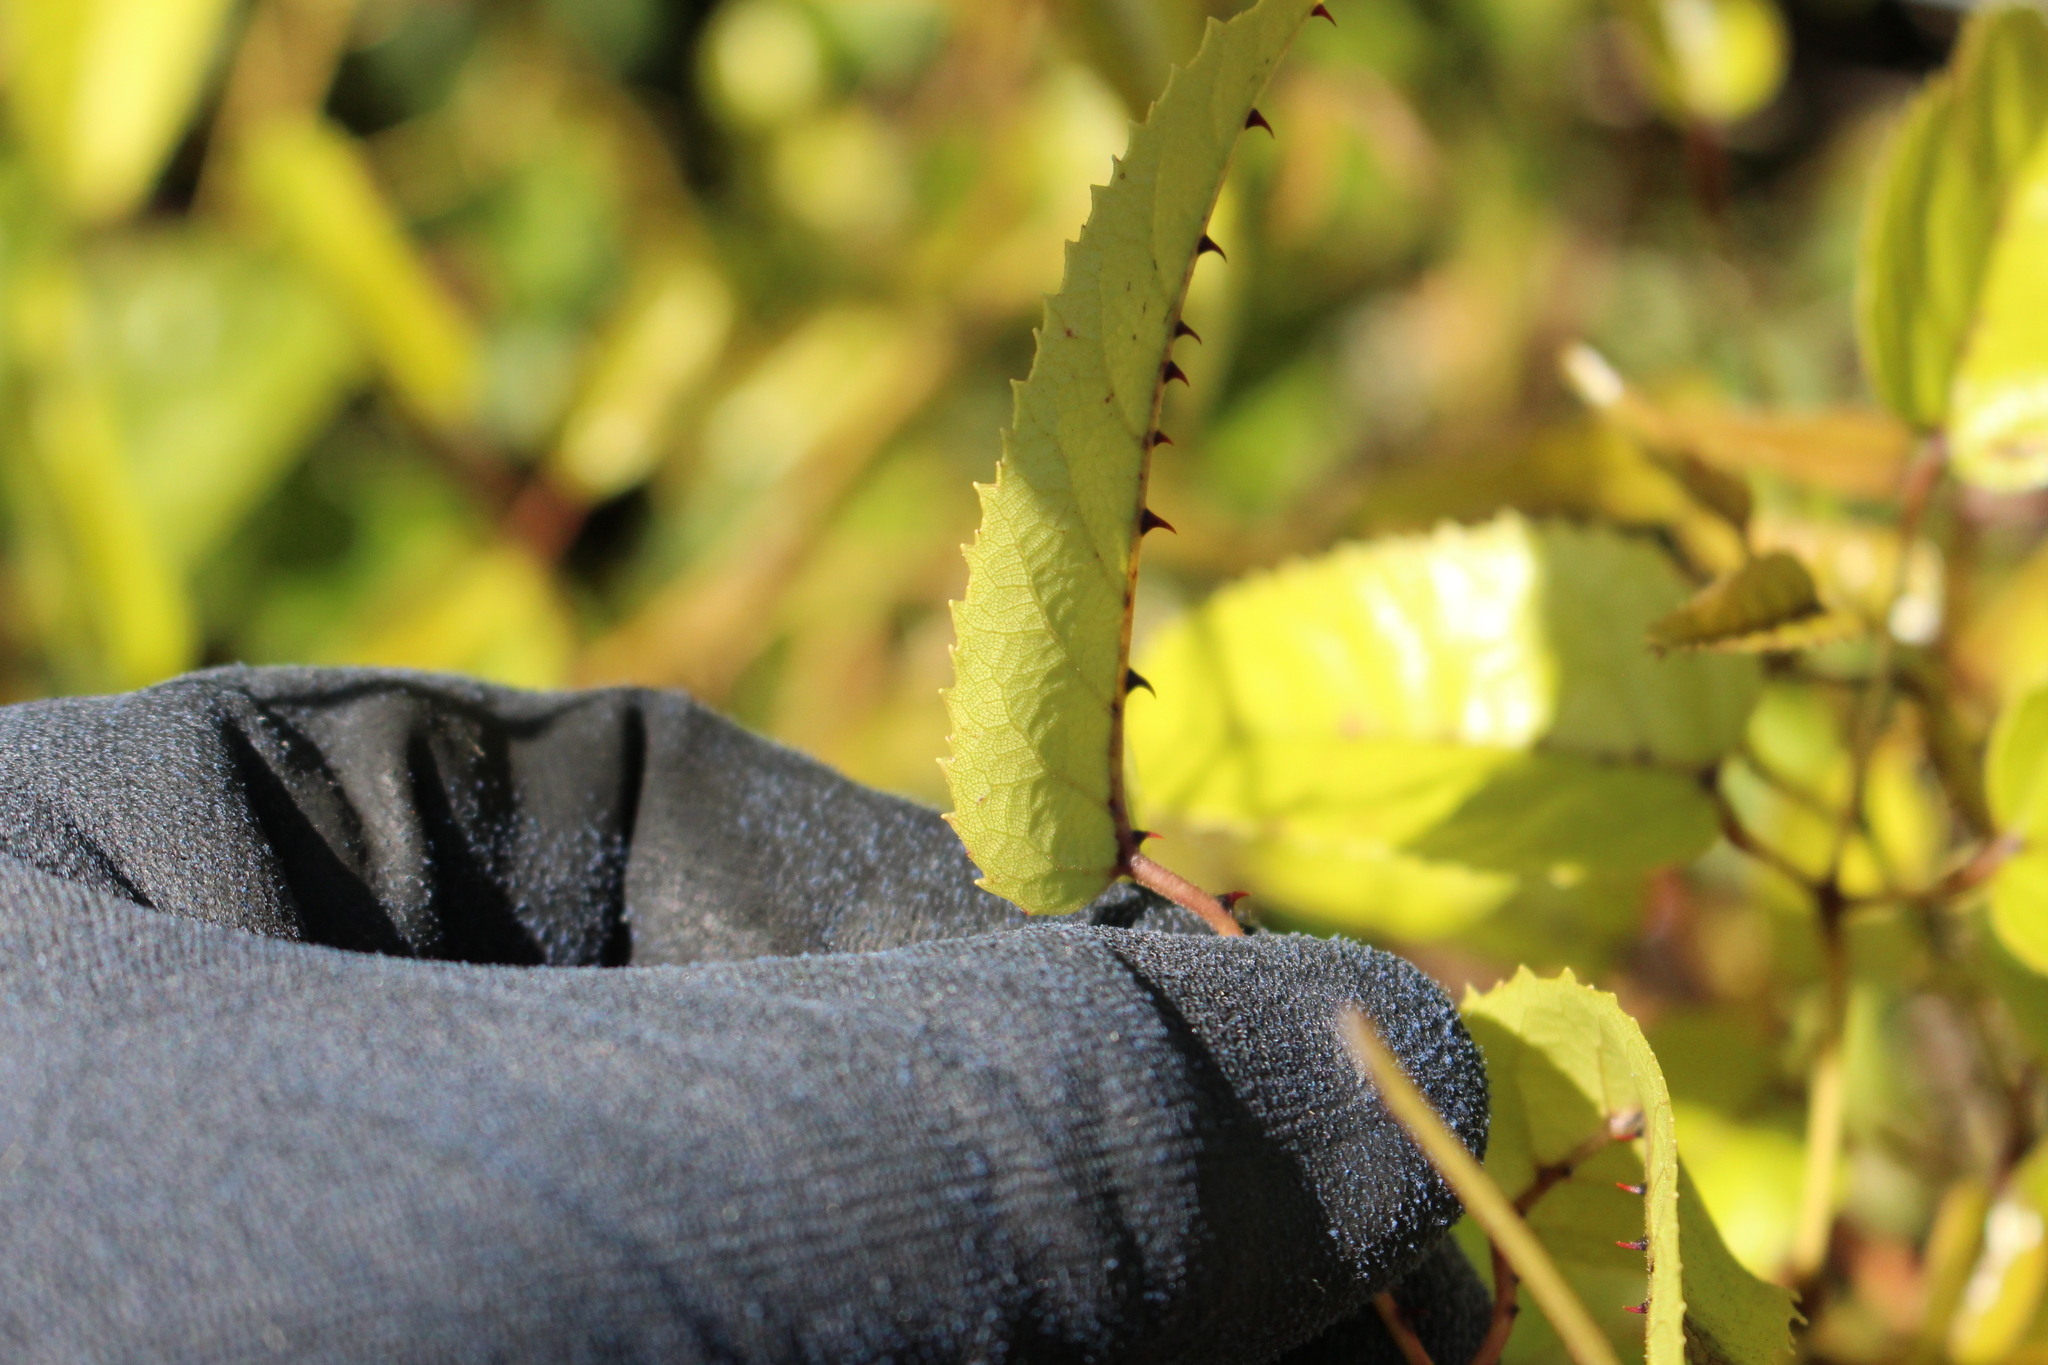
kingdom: Plantae
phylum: Tracheophyta
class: Magnoliopsida
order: Rosales
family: Rosaceae
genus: Rubus
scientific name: Rubus cissoides
